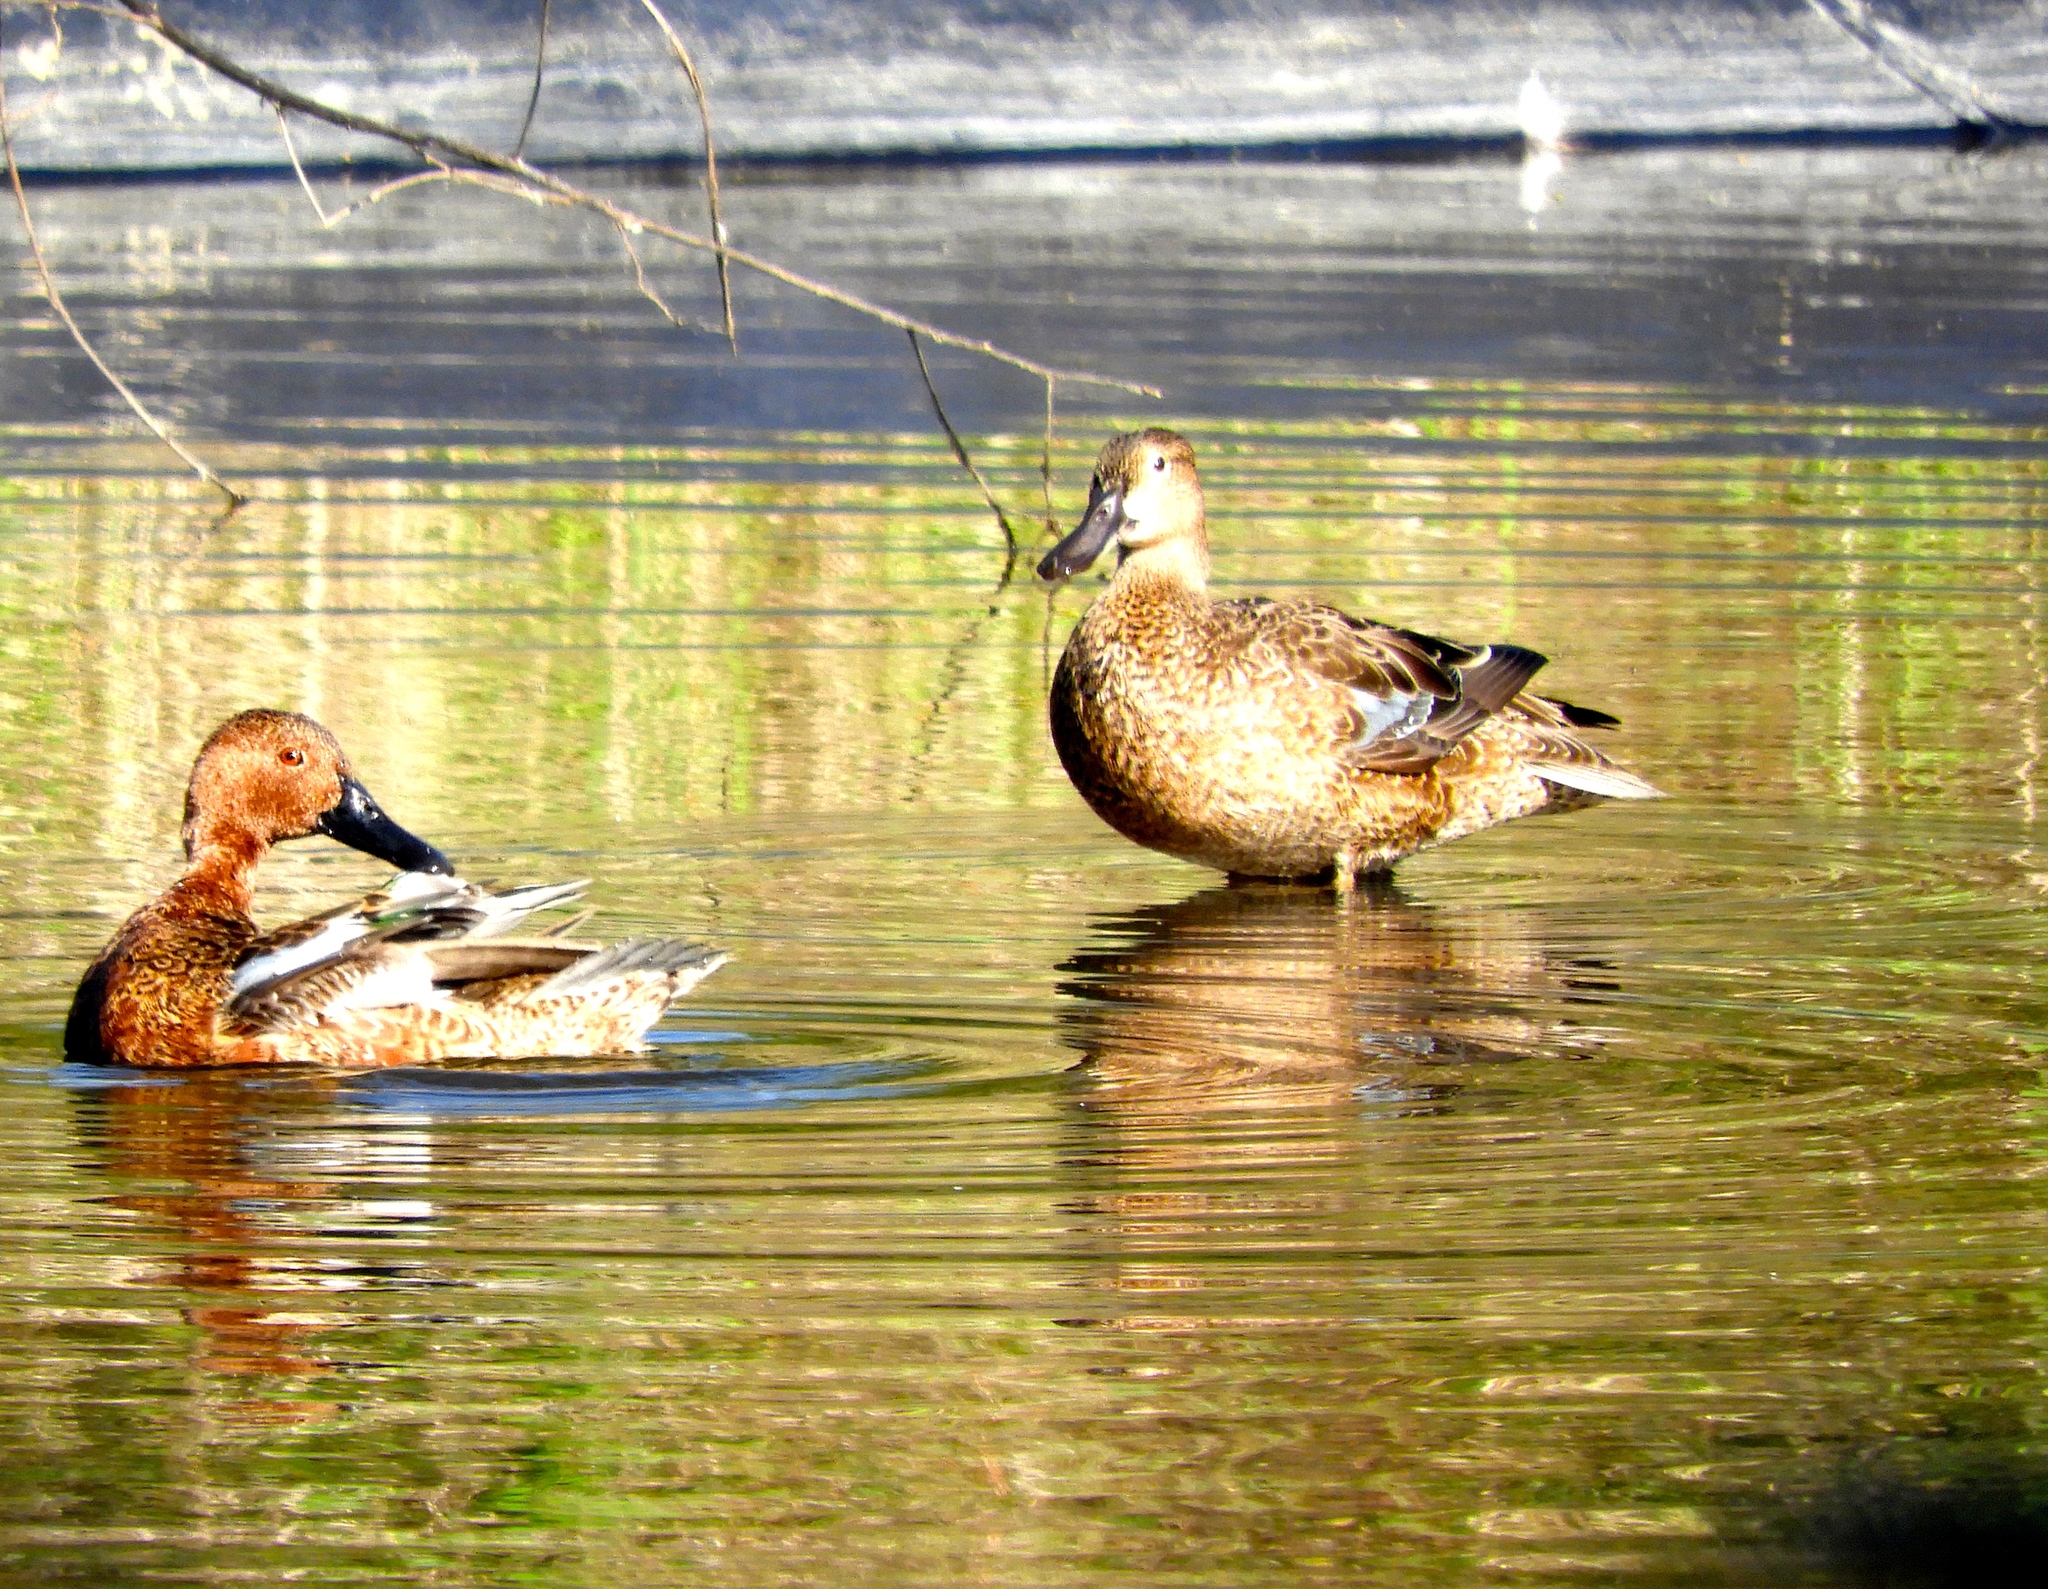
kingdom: Animalia
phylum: Chordata
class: Aves
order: Anseriformes
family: Anatidae
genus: Spatula
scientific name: Spatula cyanoptera
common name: Cinnamon teal
